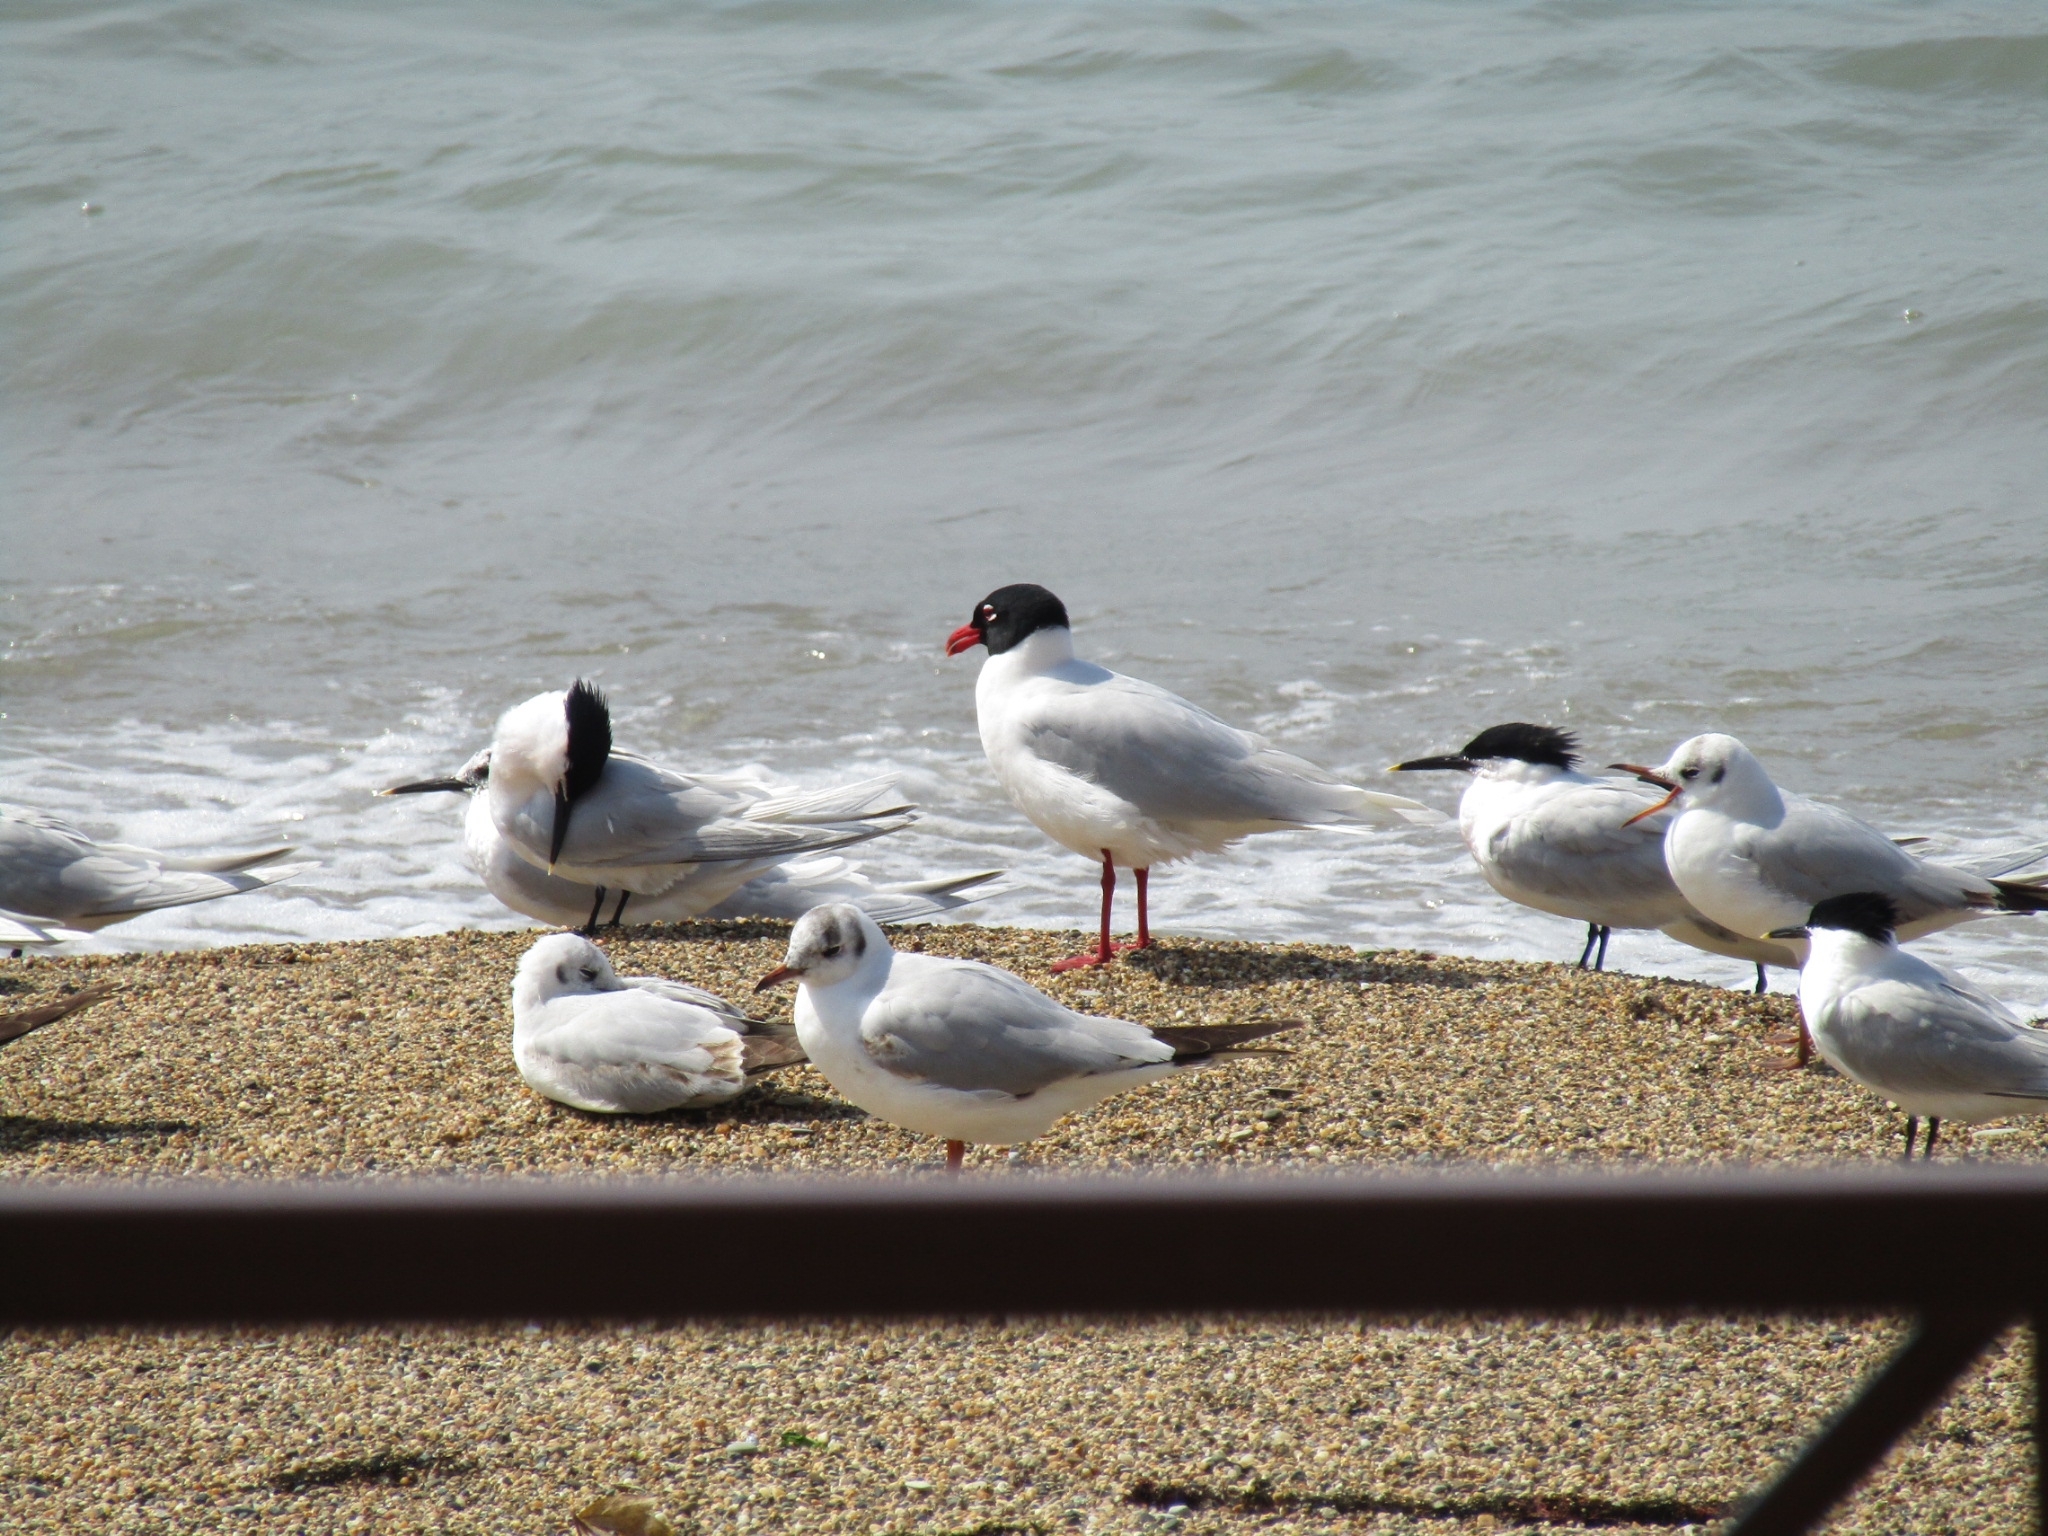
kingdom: Animalia
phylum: Chordata
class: Aves
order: Charadriiformes
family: Laridae
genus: Ichthyaetus
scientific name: Ichthyaetus melanocephalus
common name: Mediterranean gull
